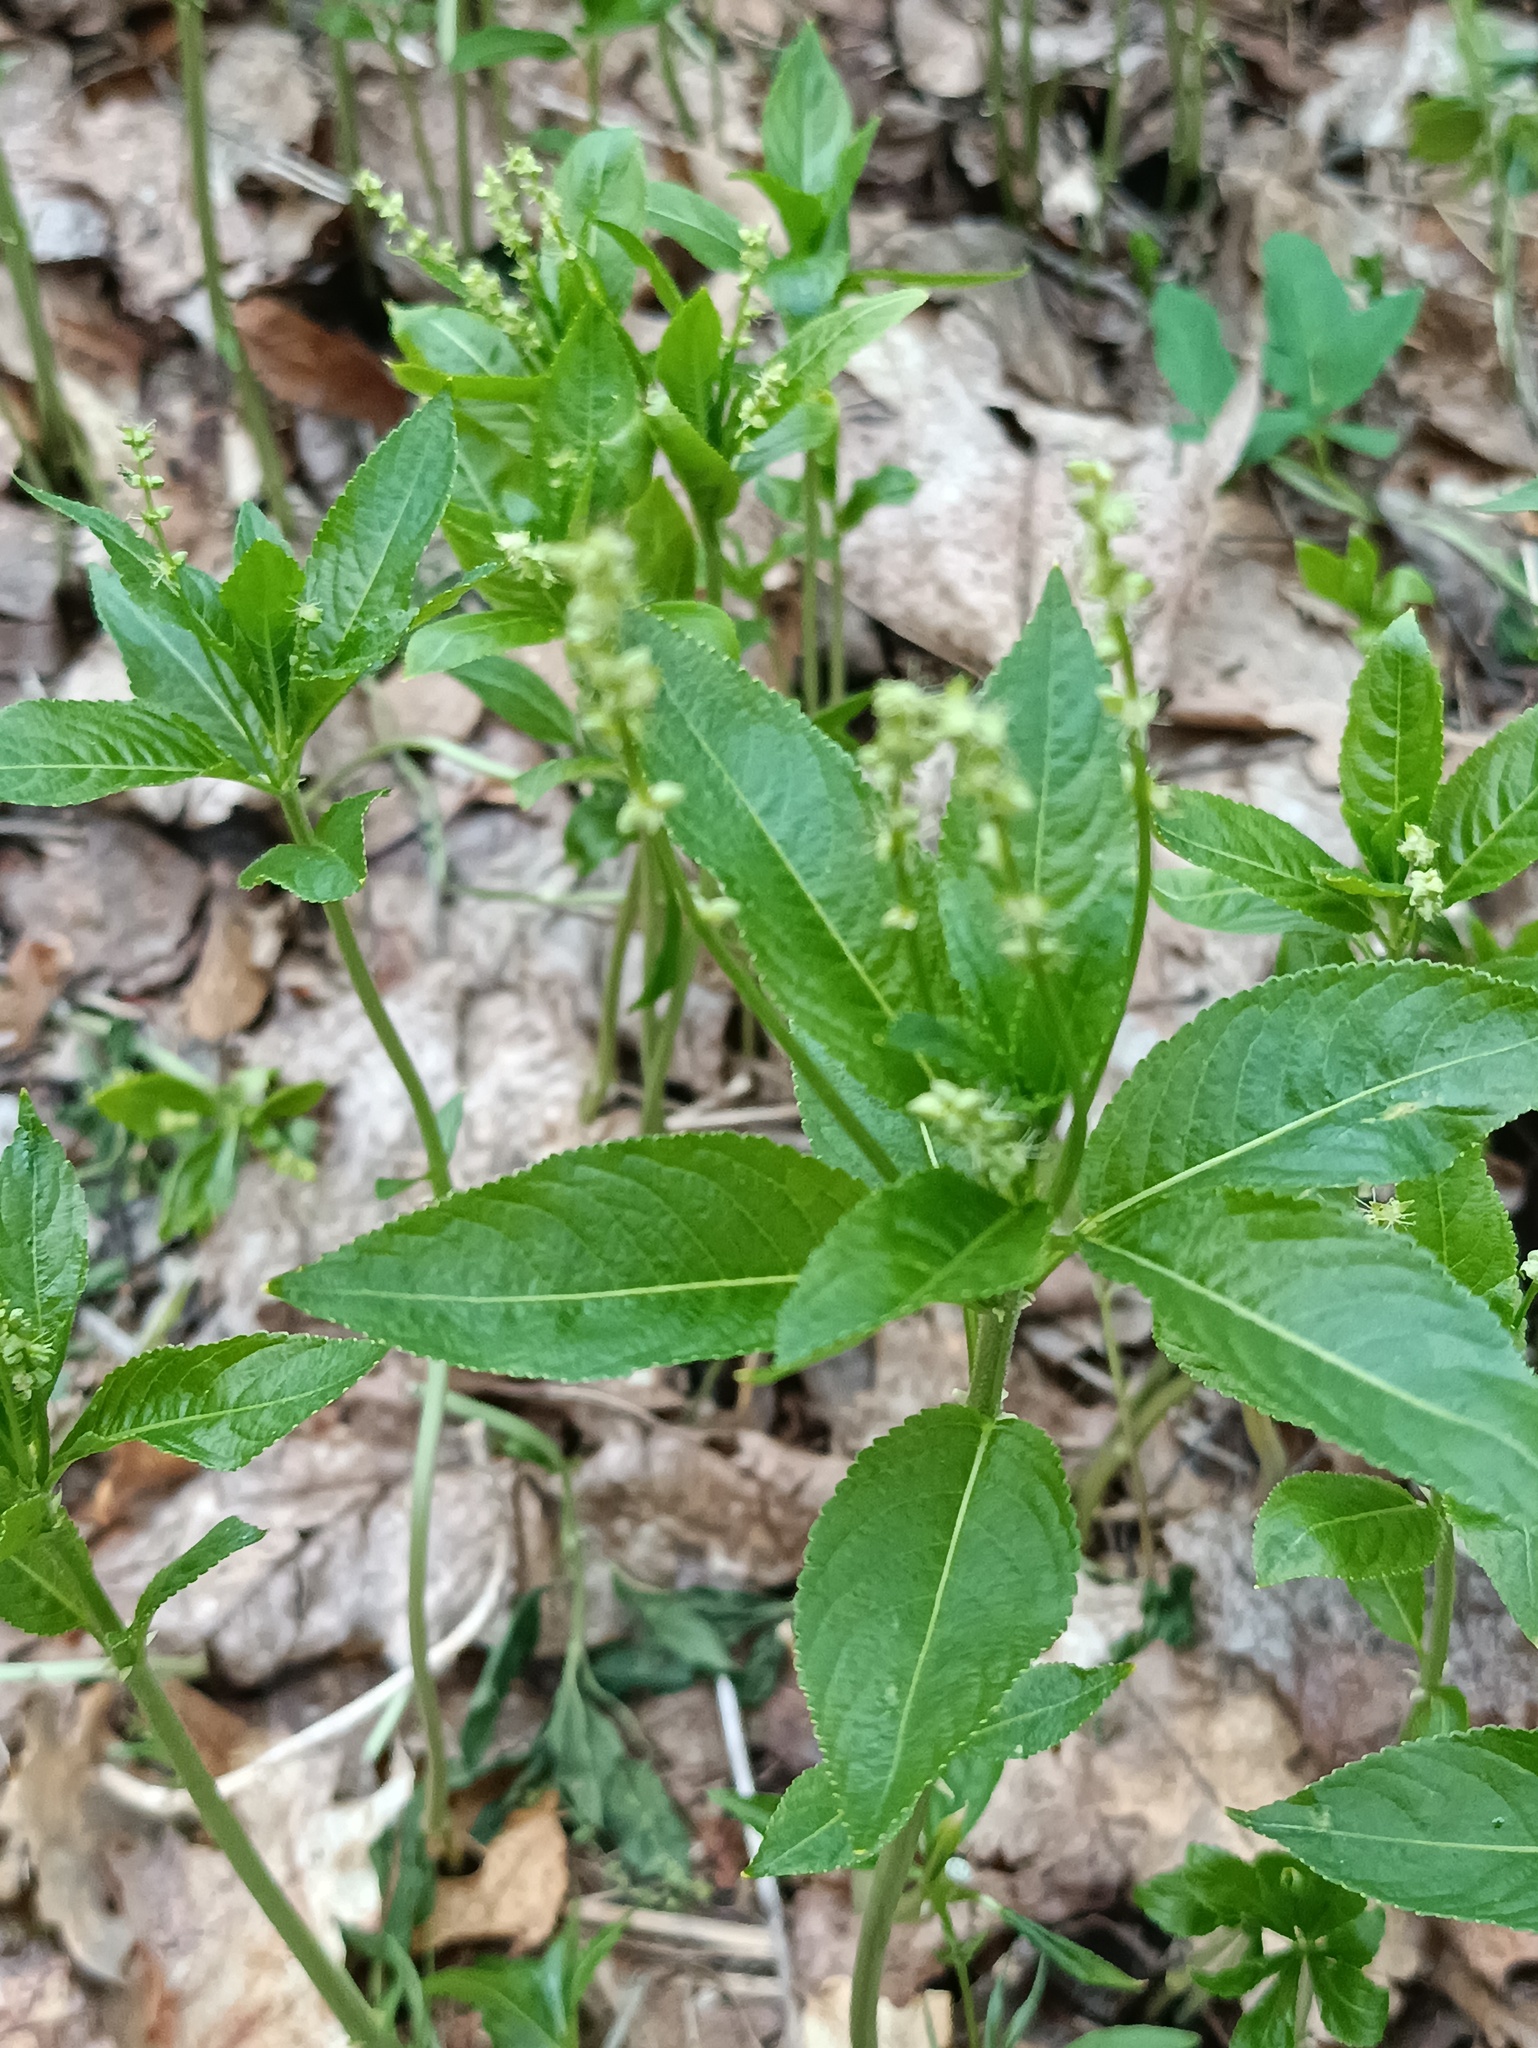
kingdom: Plantae
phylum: Tracheophyta
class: Magnoliopsida
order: Malpighiales
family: Euphorbiaceae
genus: Mercurialis
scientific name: Mercurialis perennis
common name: Dog mercury
